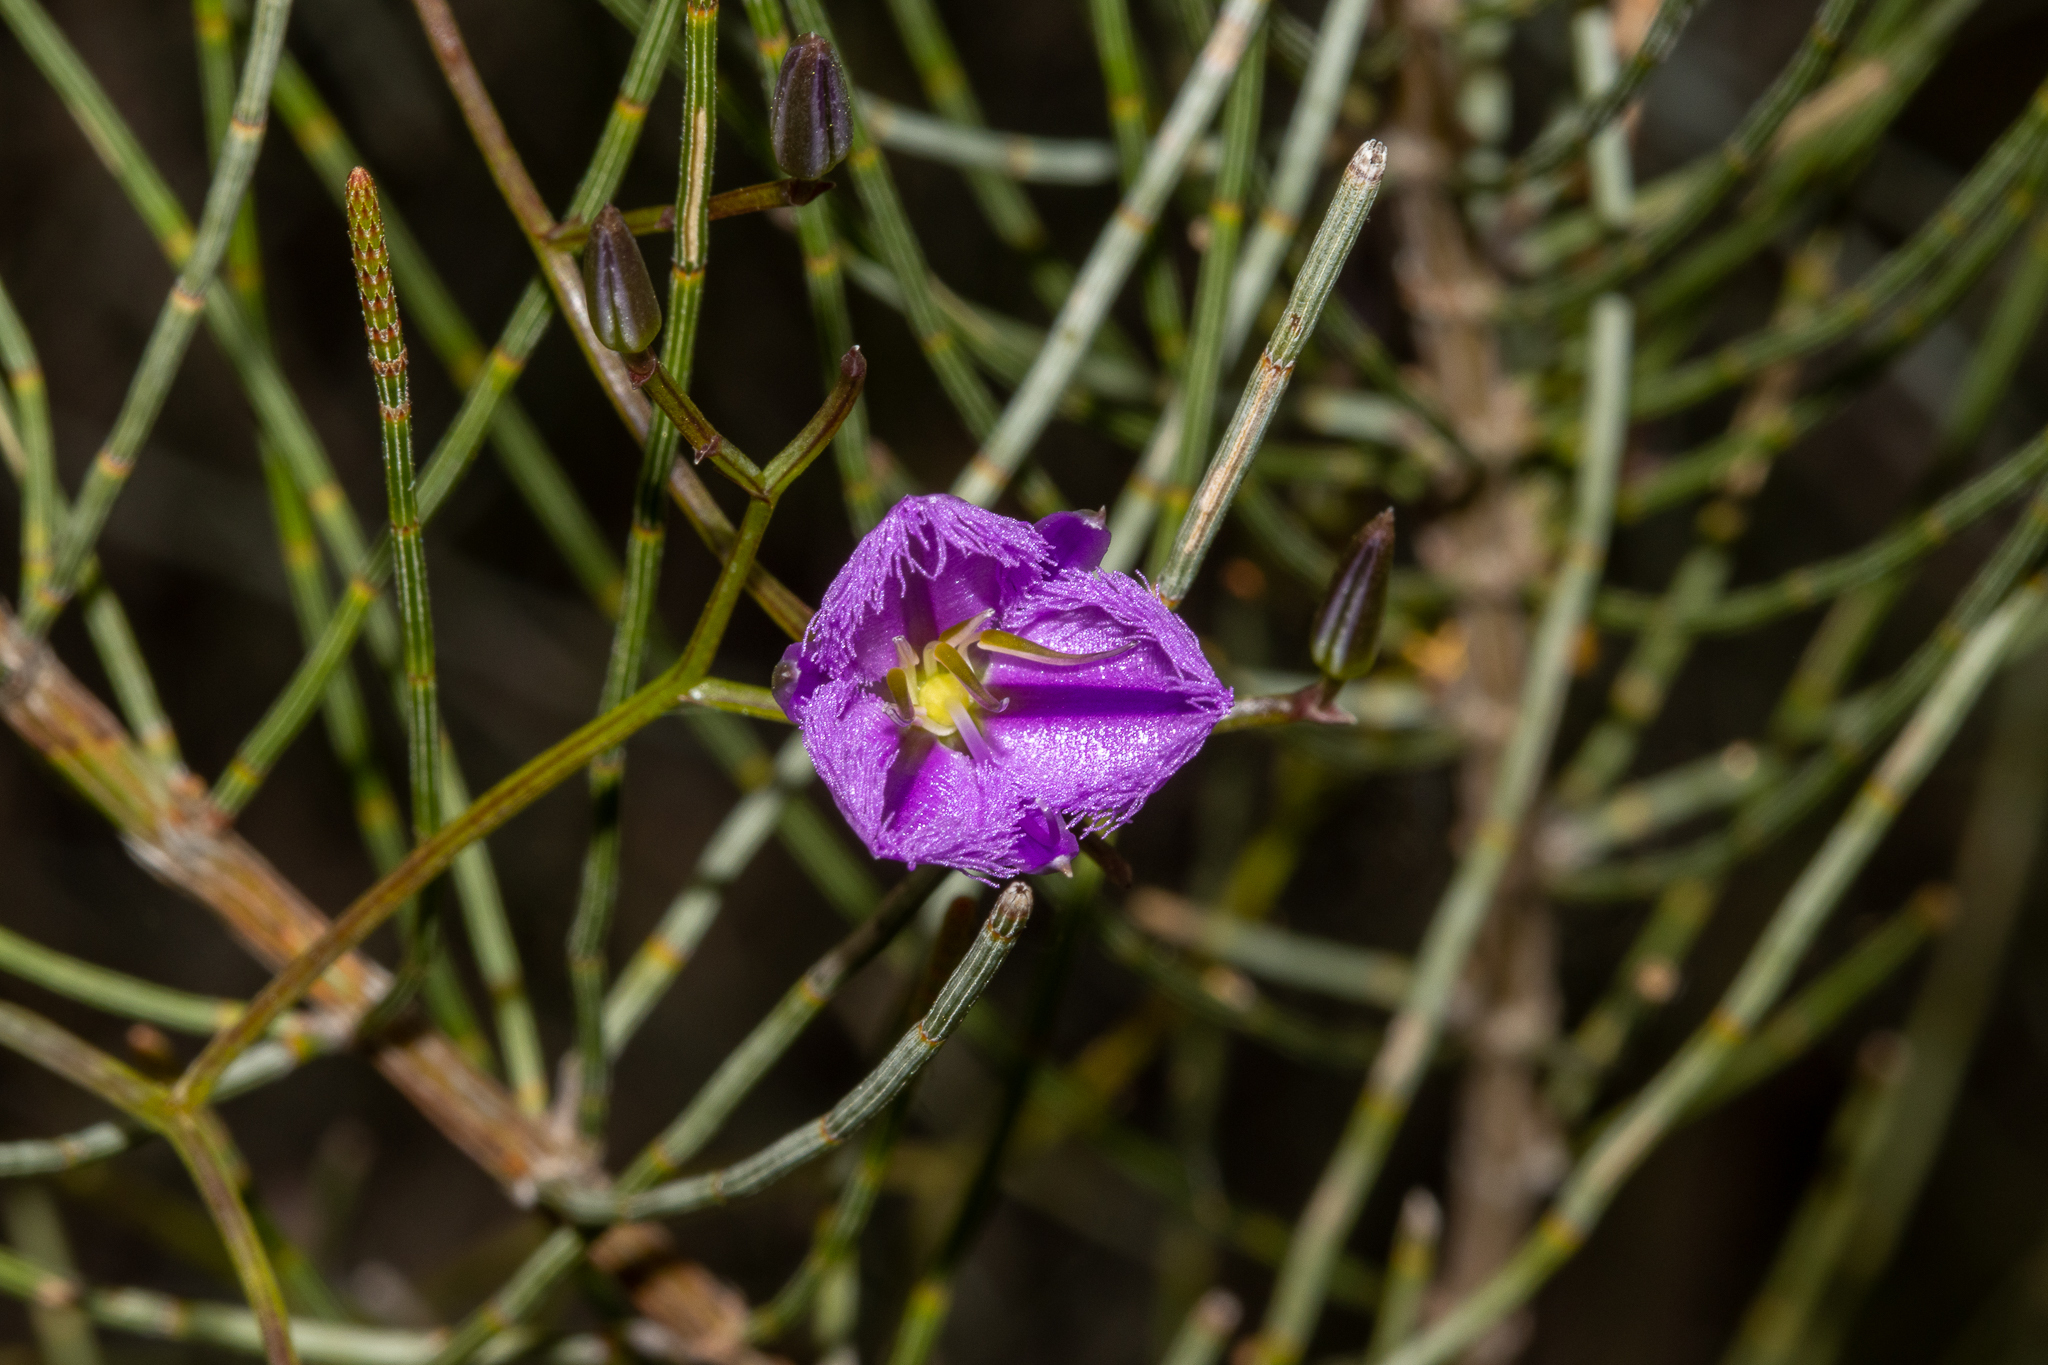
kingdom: Plantae
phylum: Tracheophyta
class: Liliopsida
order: Asparagales
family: Asparagaceae
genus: Thysanotus
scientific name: Thysanotus manglesianus
